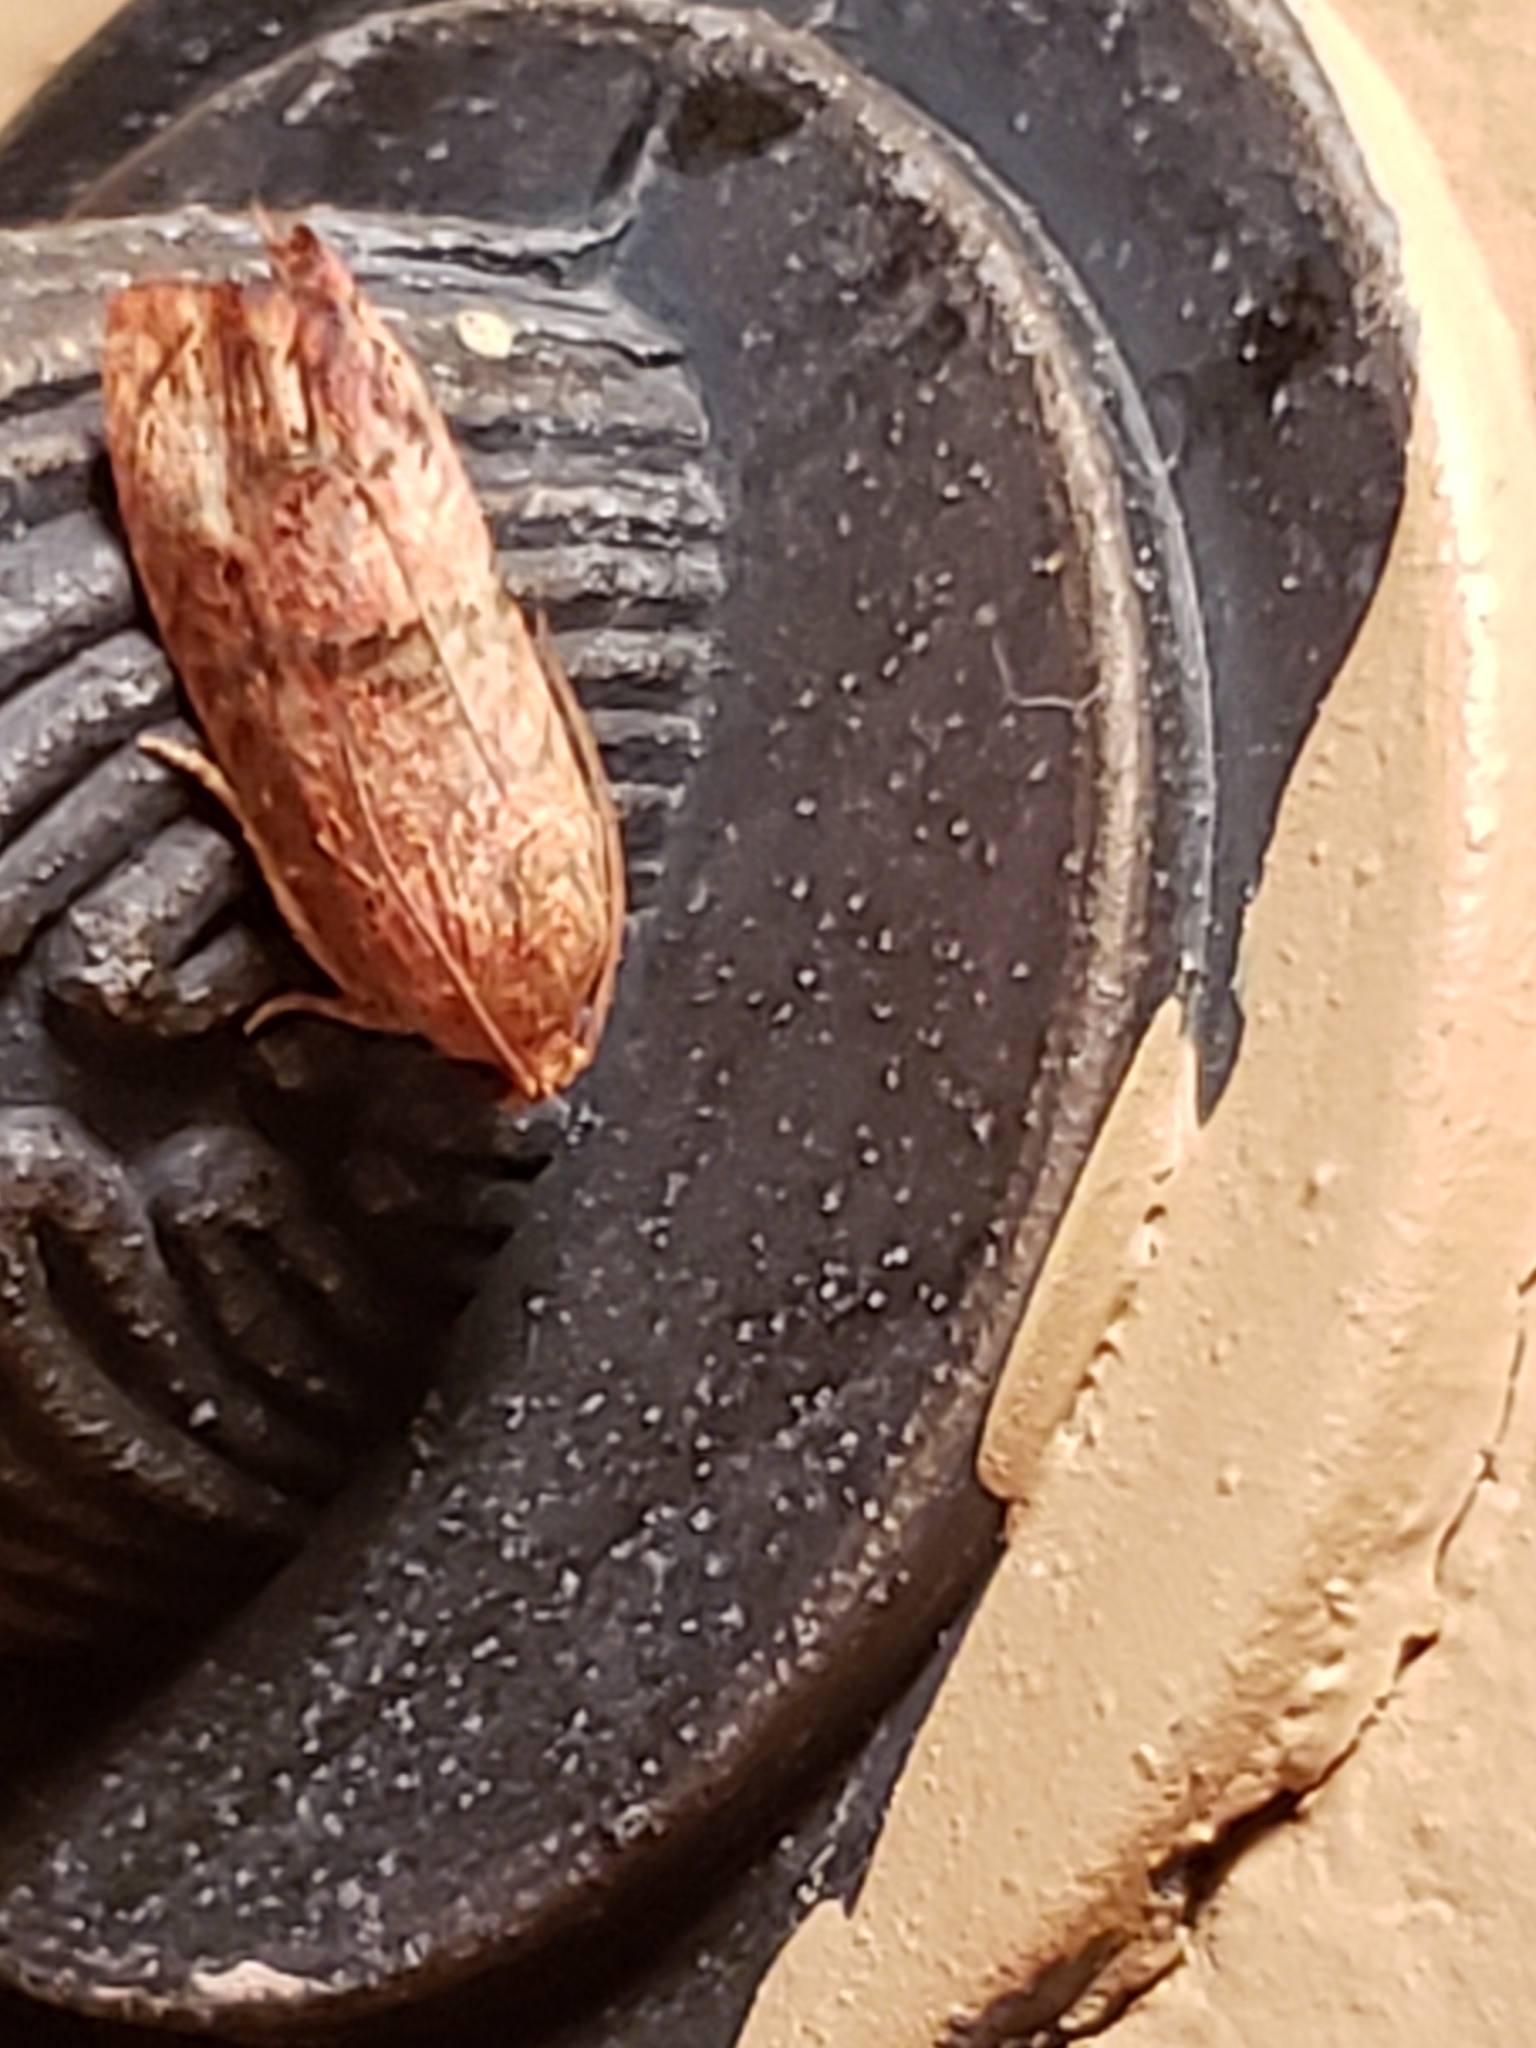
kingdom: Animalia
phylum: Arthropoda
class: Insecta
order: Lepidoptera
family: Tortricidae
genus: Cydia
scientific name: Cydia latiferreana
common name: Filbertworm moth
